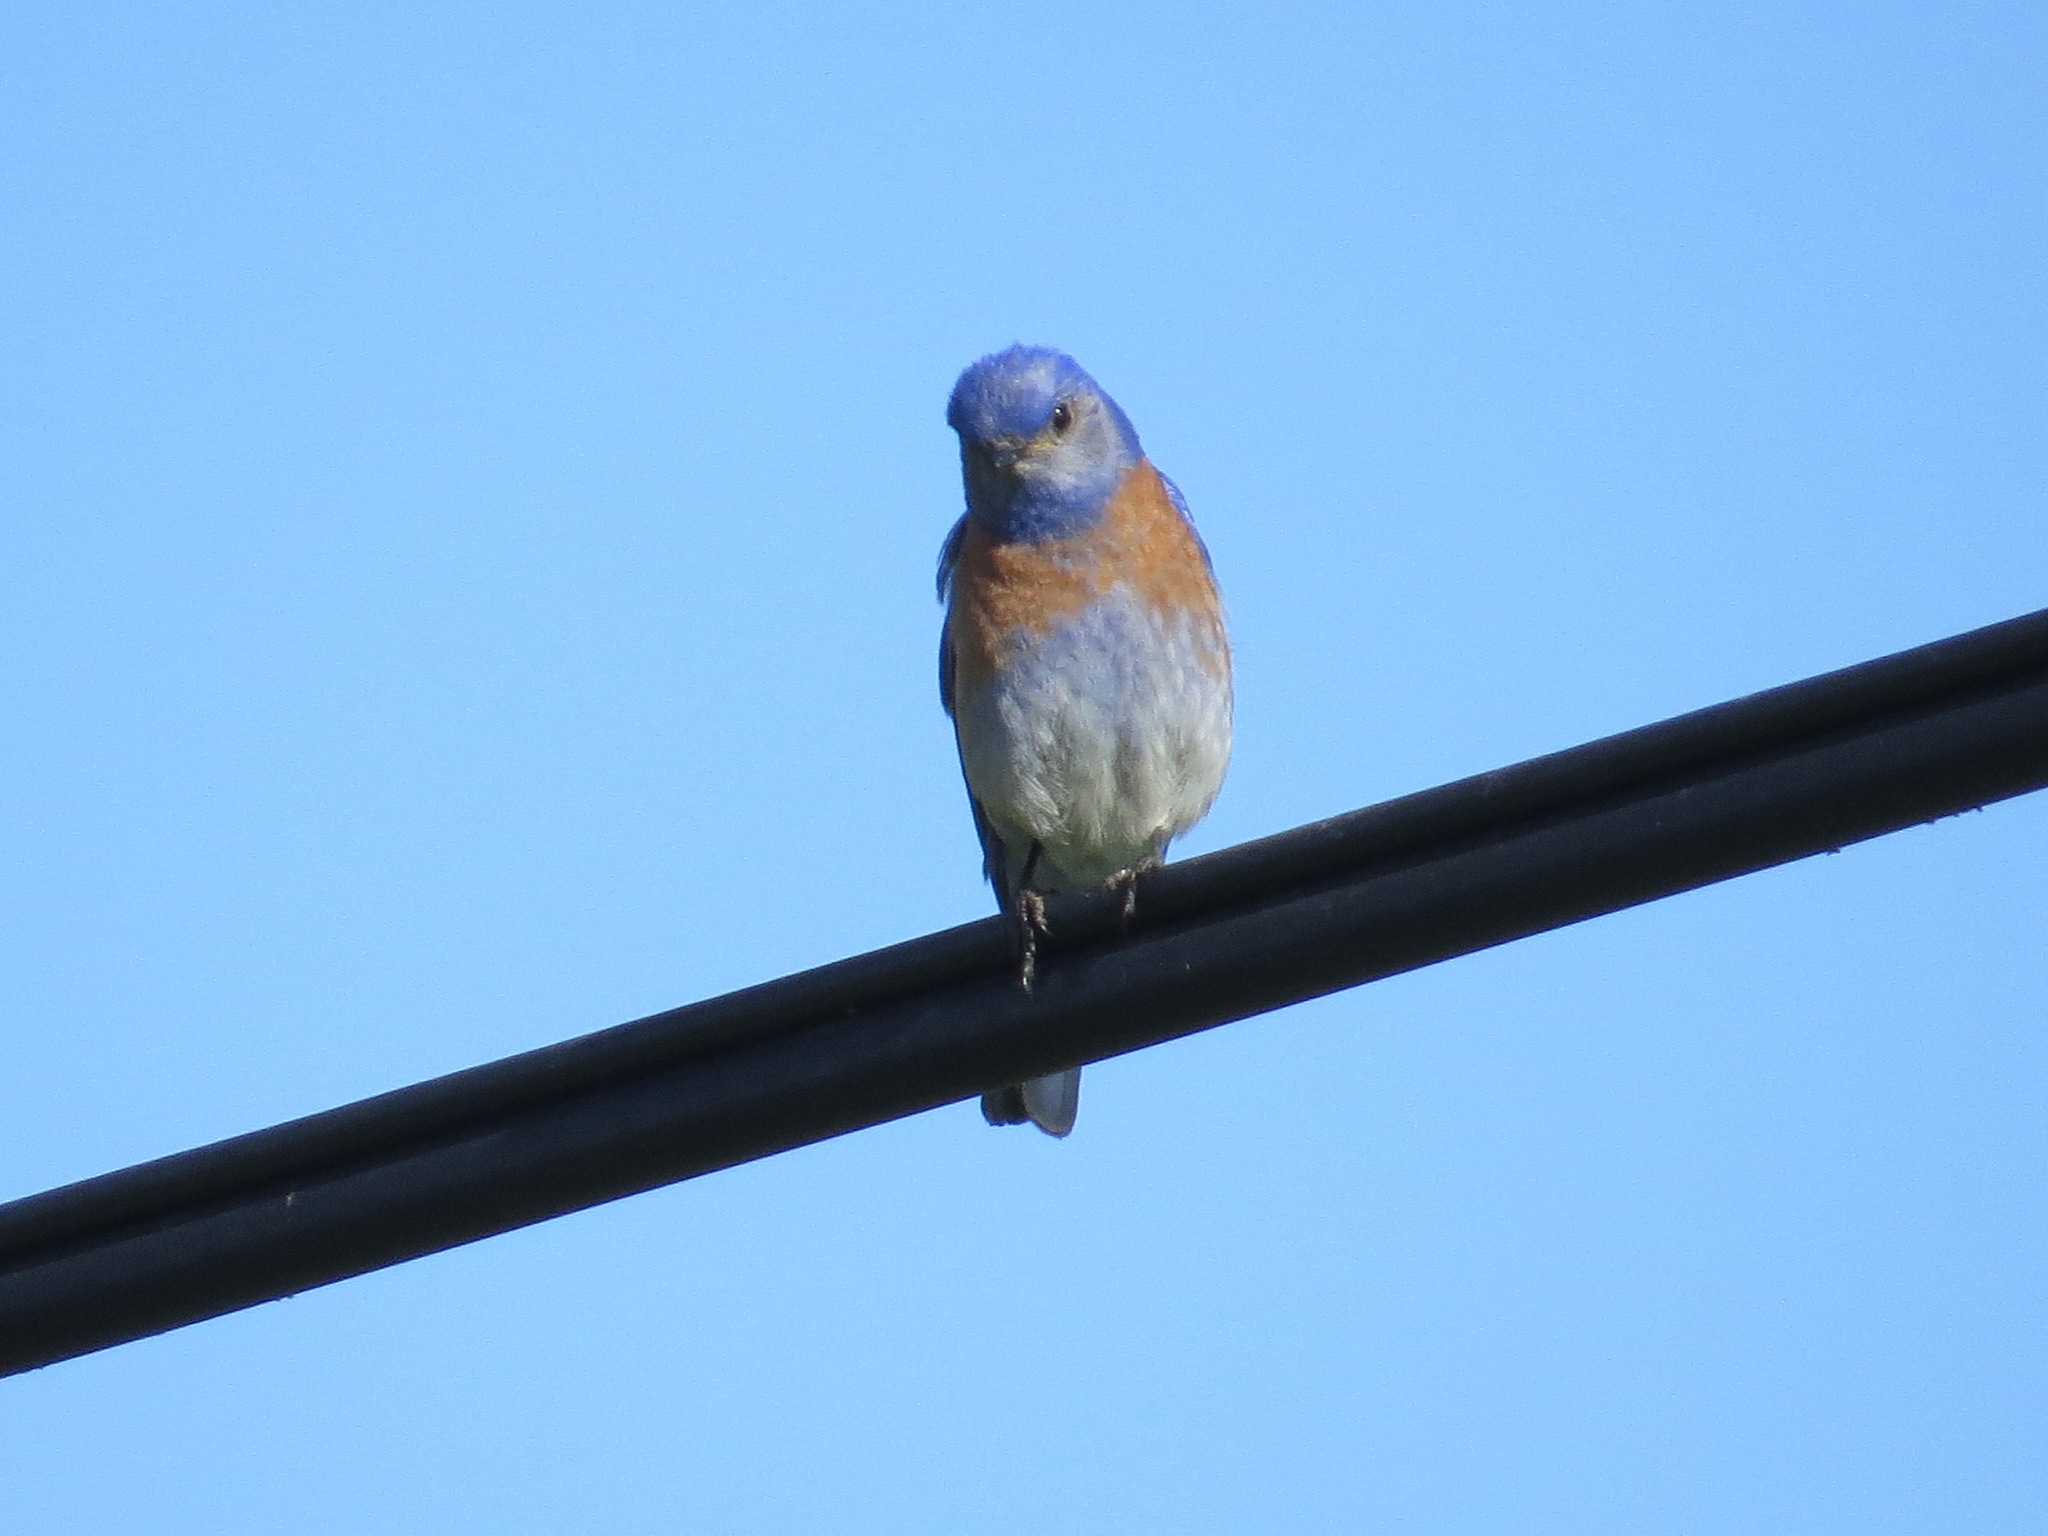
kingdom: Animalia
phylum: Chordata
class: Aves
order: Passeriformes
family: Turdidae
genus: Sialia
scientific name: Sialia mexicana
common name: Western bluebird
